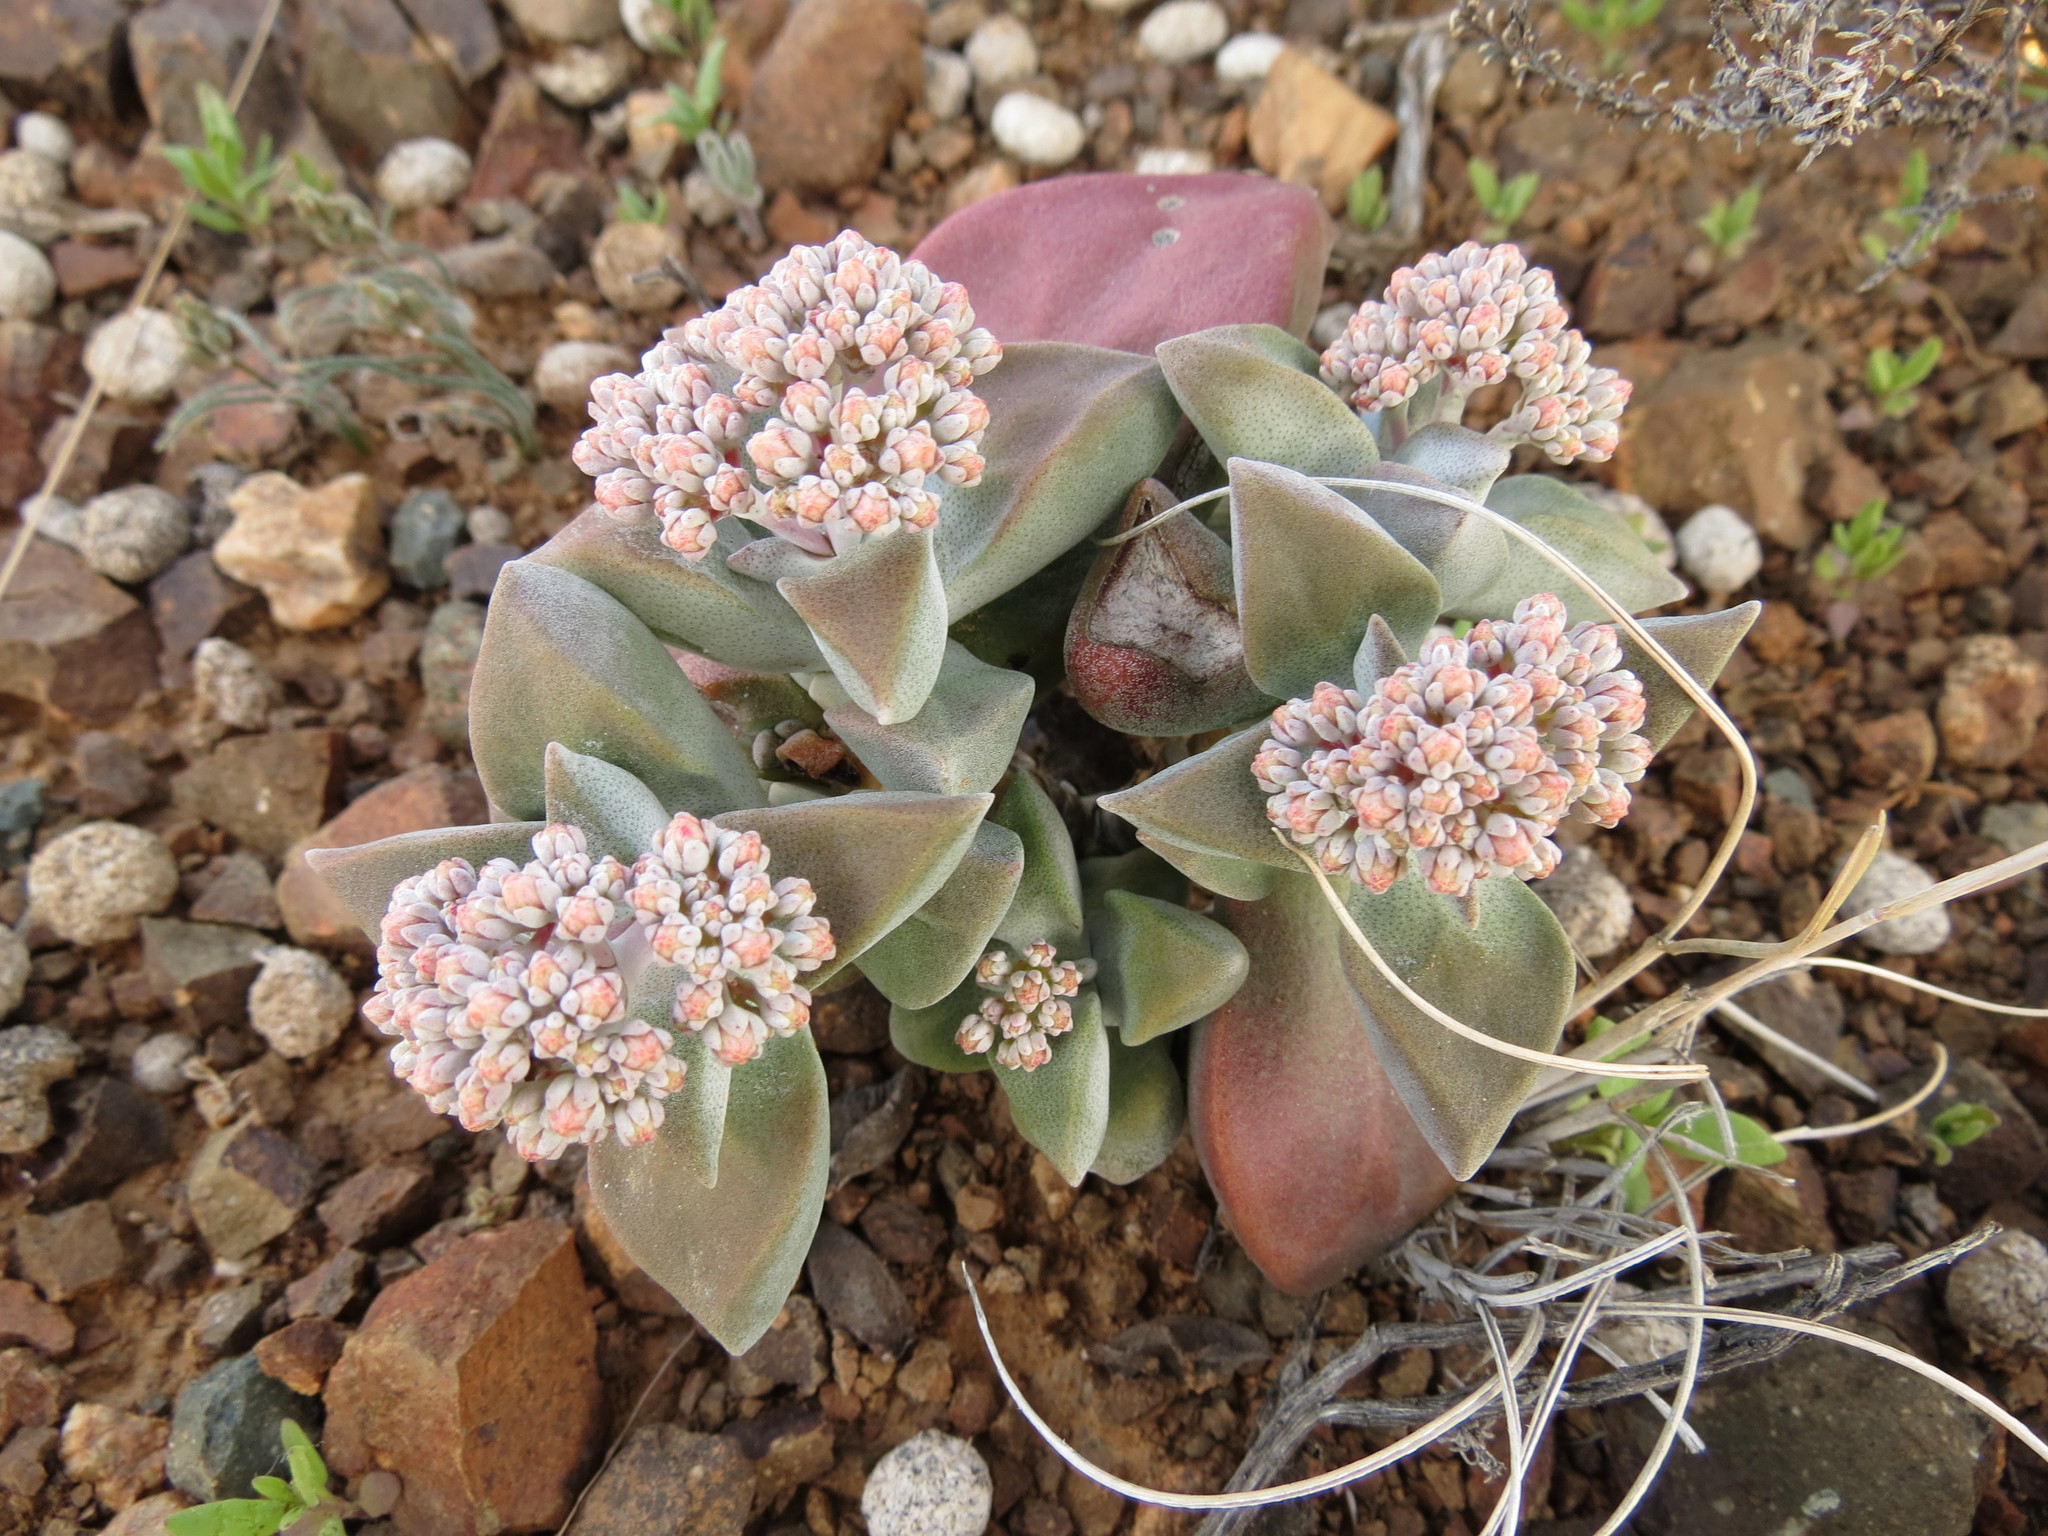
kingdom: Plantae
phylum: Tracheophyta
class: Magnoliopsida
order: Saxifragales
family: Crassulaceae
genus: Crassula
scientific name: Crassula deltoidea
